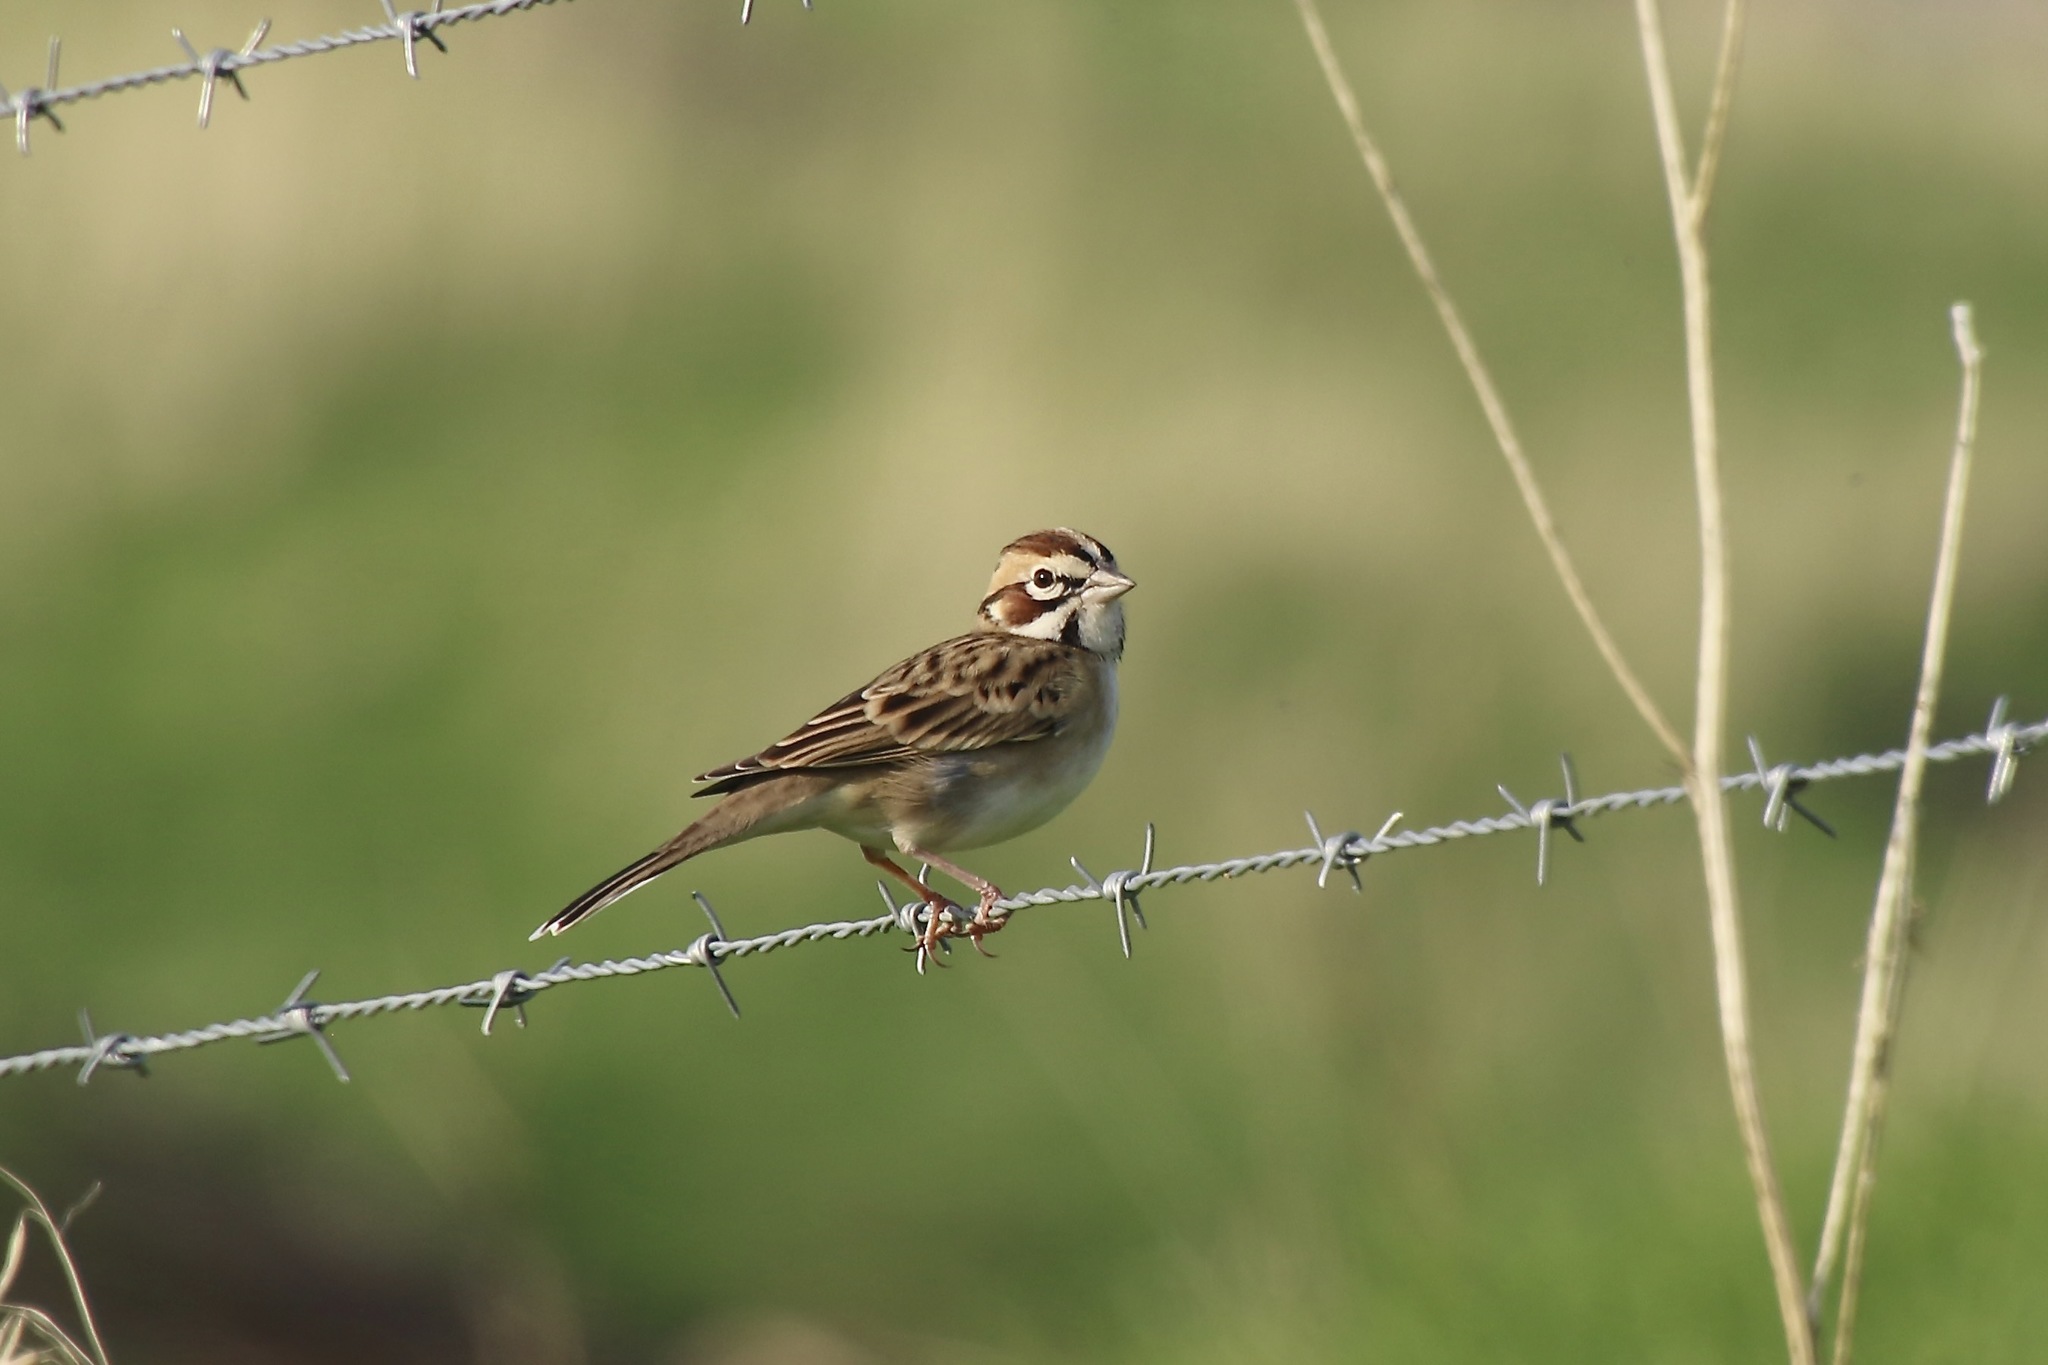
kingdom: Animalia
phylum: Chordata
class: Aves
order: Passeriformes
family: Passerellidae
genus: Chondestes
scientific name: Chondestes grammacus
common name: Lark sparrow
